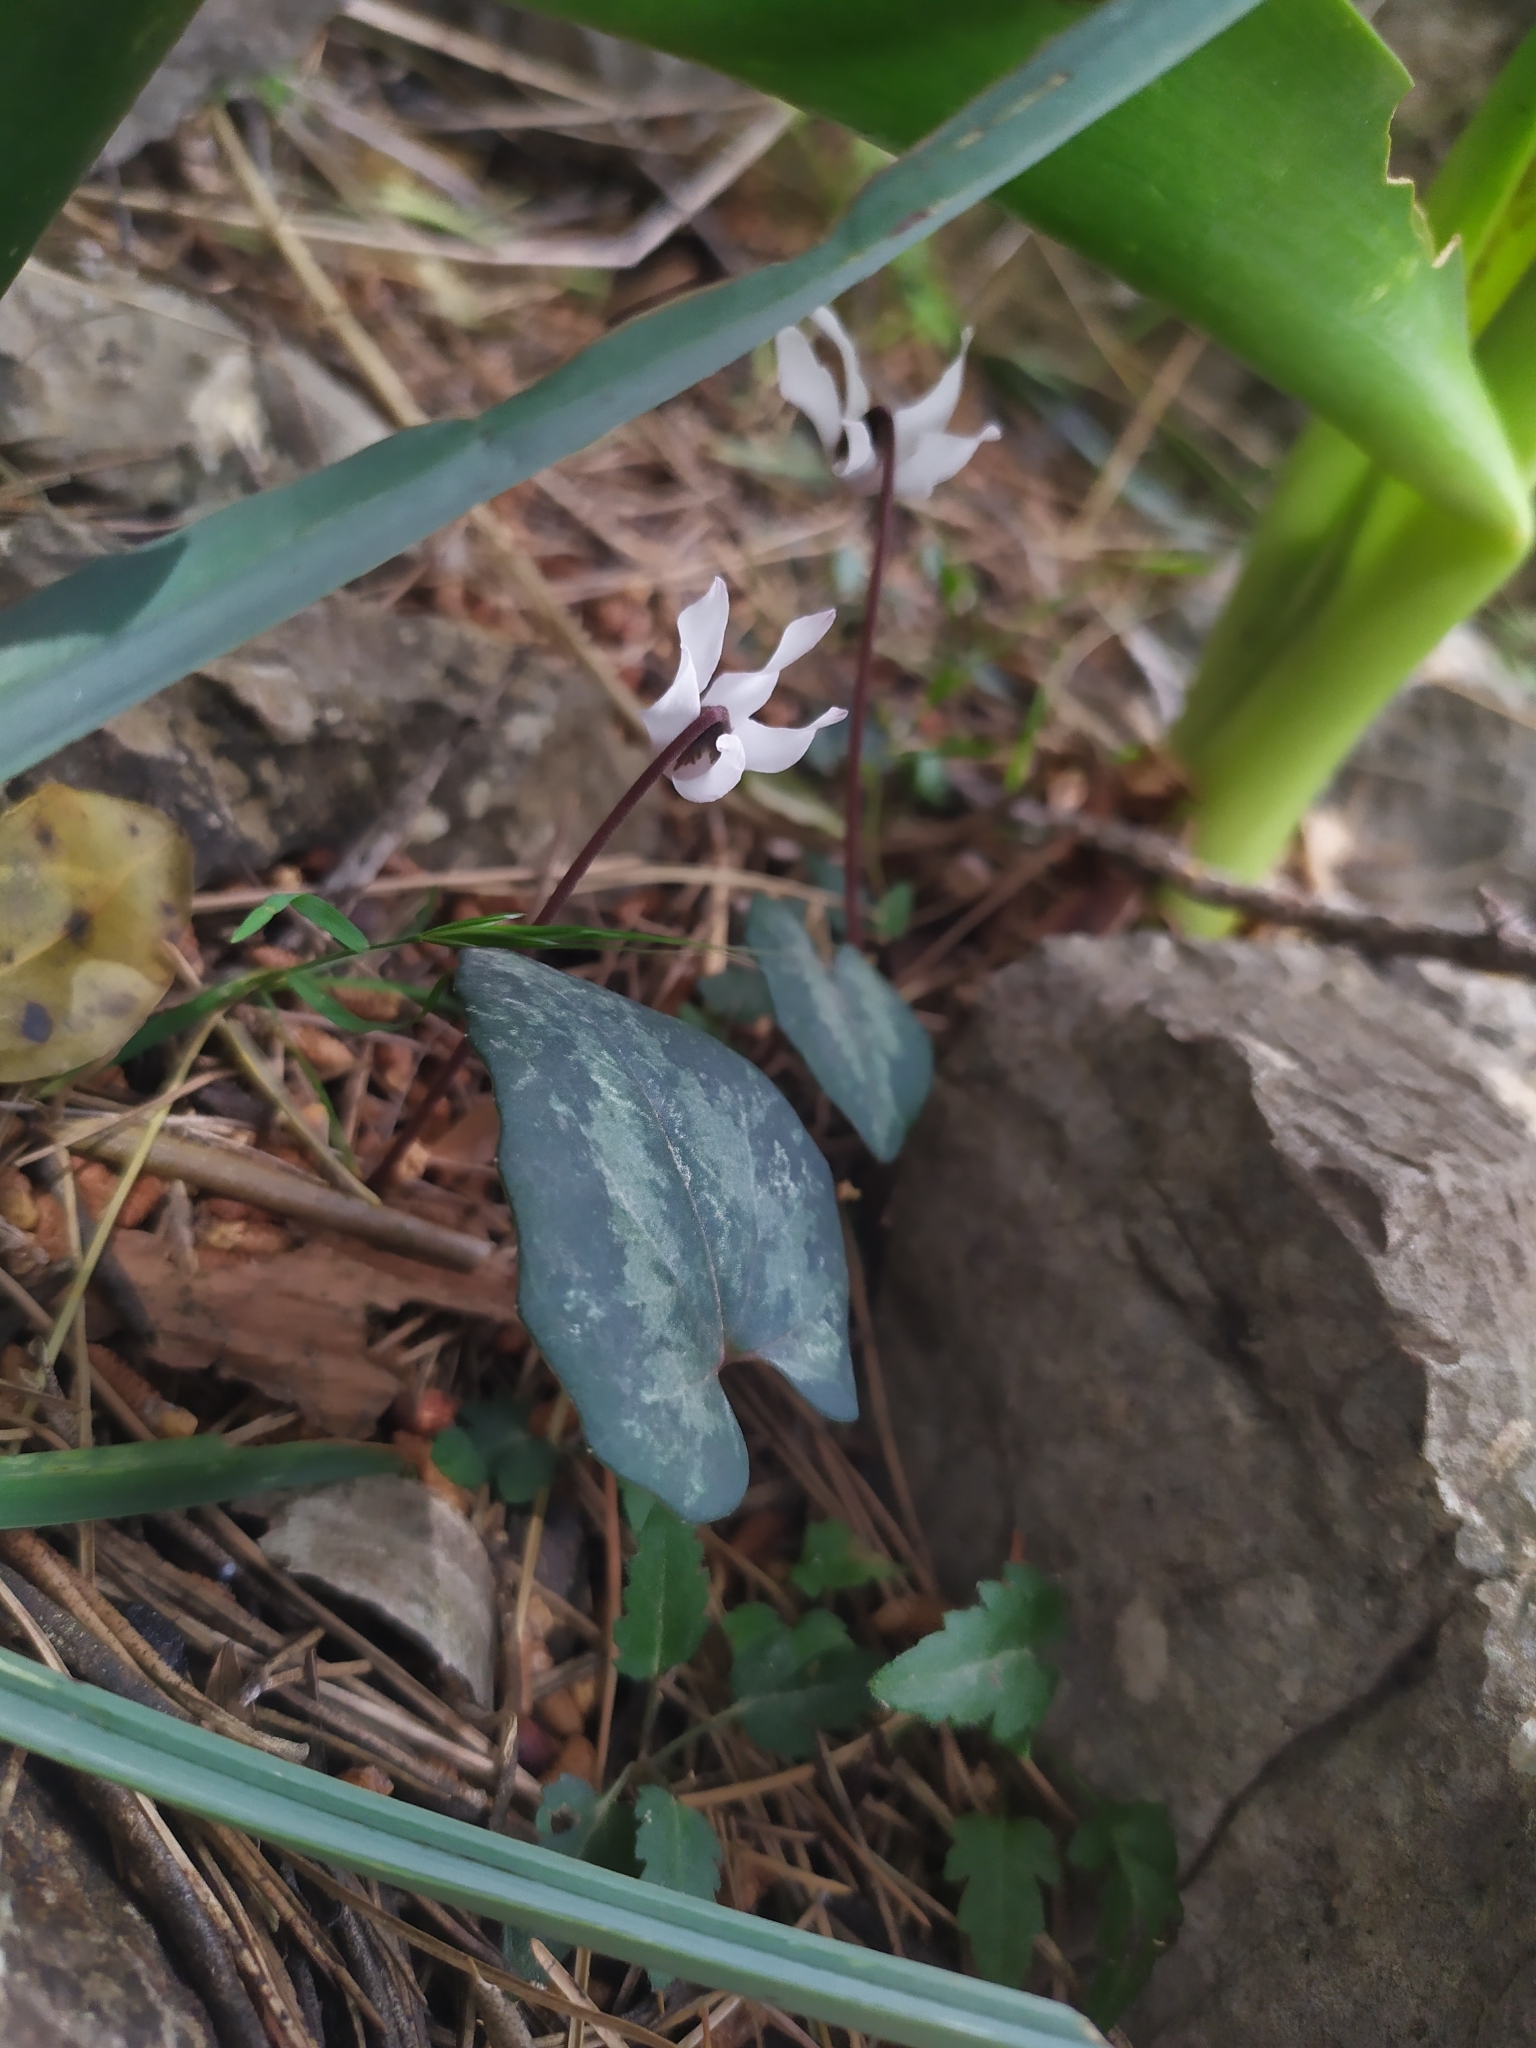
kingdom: Plantae
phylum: Tracheophyta
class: Magnoliopsida
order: Ericales
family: Primulaceae
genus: Cyclamen
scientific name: Cyclamen balearicum
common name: Majorca cyclamen
